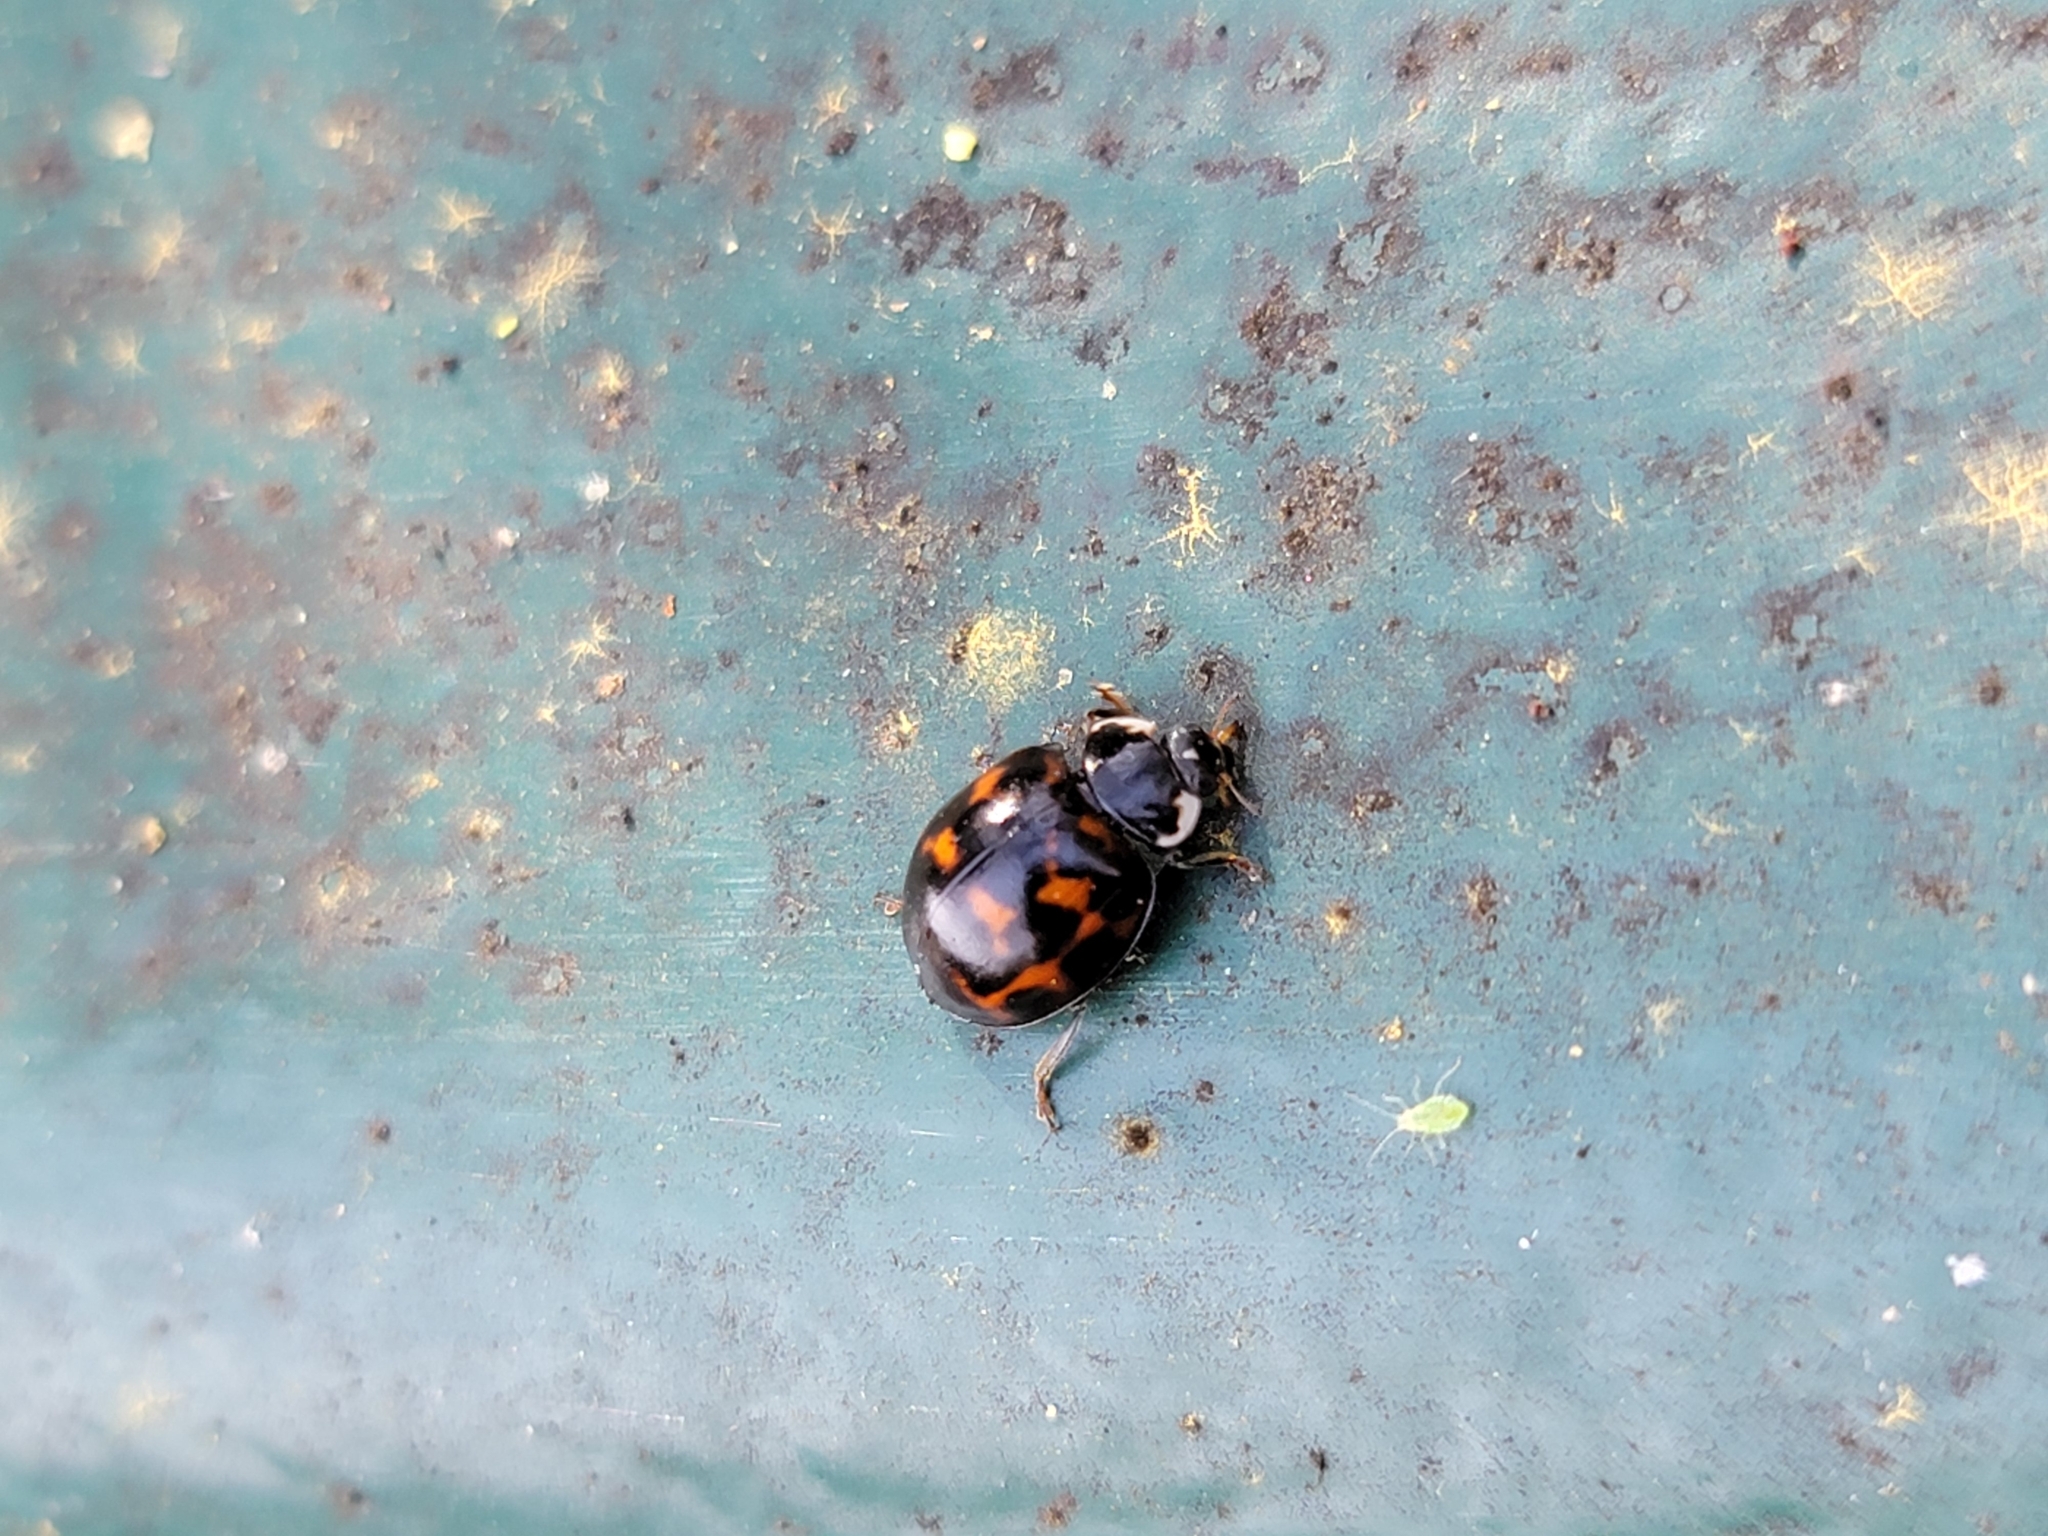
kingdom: Animalia
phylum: Arthropoda
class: Insecta
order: Coleoptera
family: Coccinellidae
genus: Harmonia
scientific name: Harmonia axyridis
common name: Harlequin ladybird
